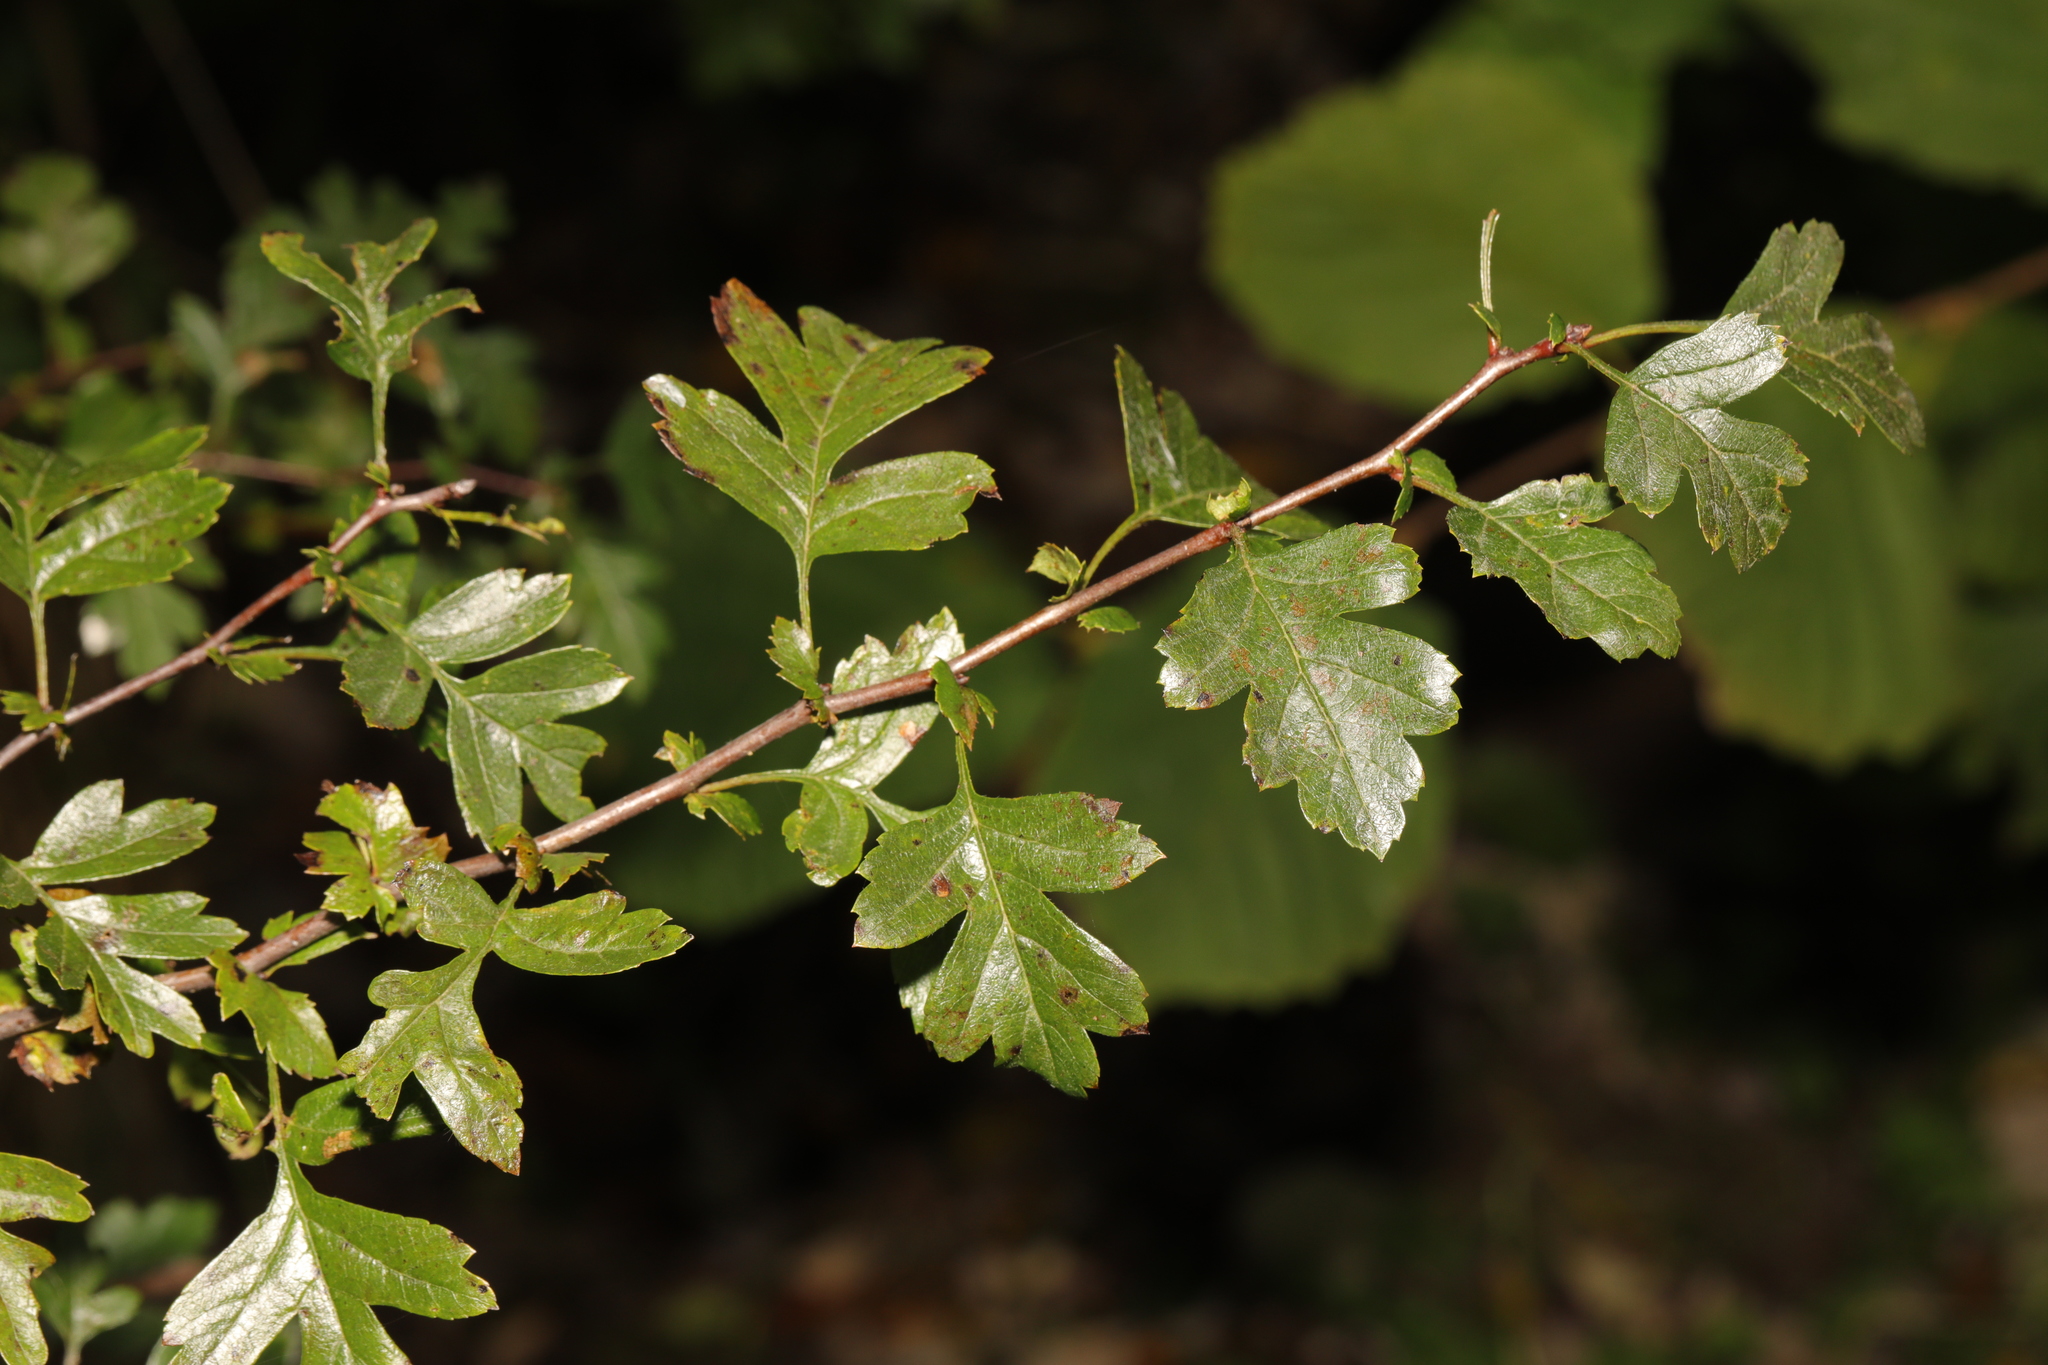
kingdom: Plantae
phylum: Tracheophyta
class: Magnoliopsida
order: Rosales
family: Rosaceae
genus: Crataegus
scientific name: Crataegus monogyna
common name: Hawthorn
